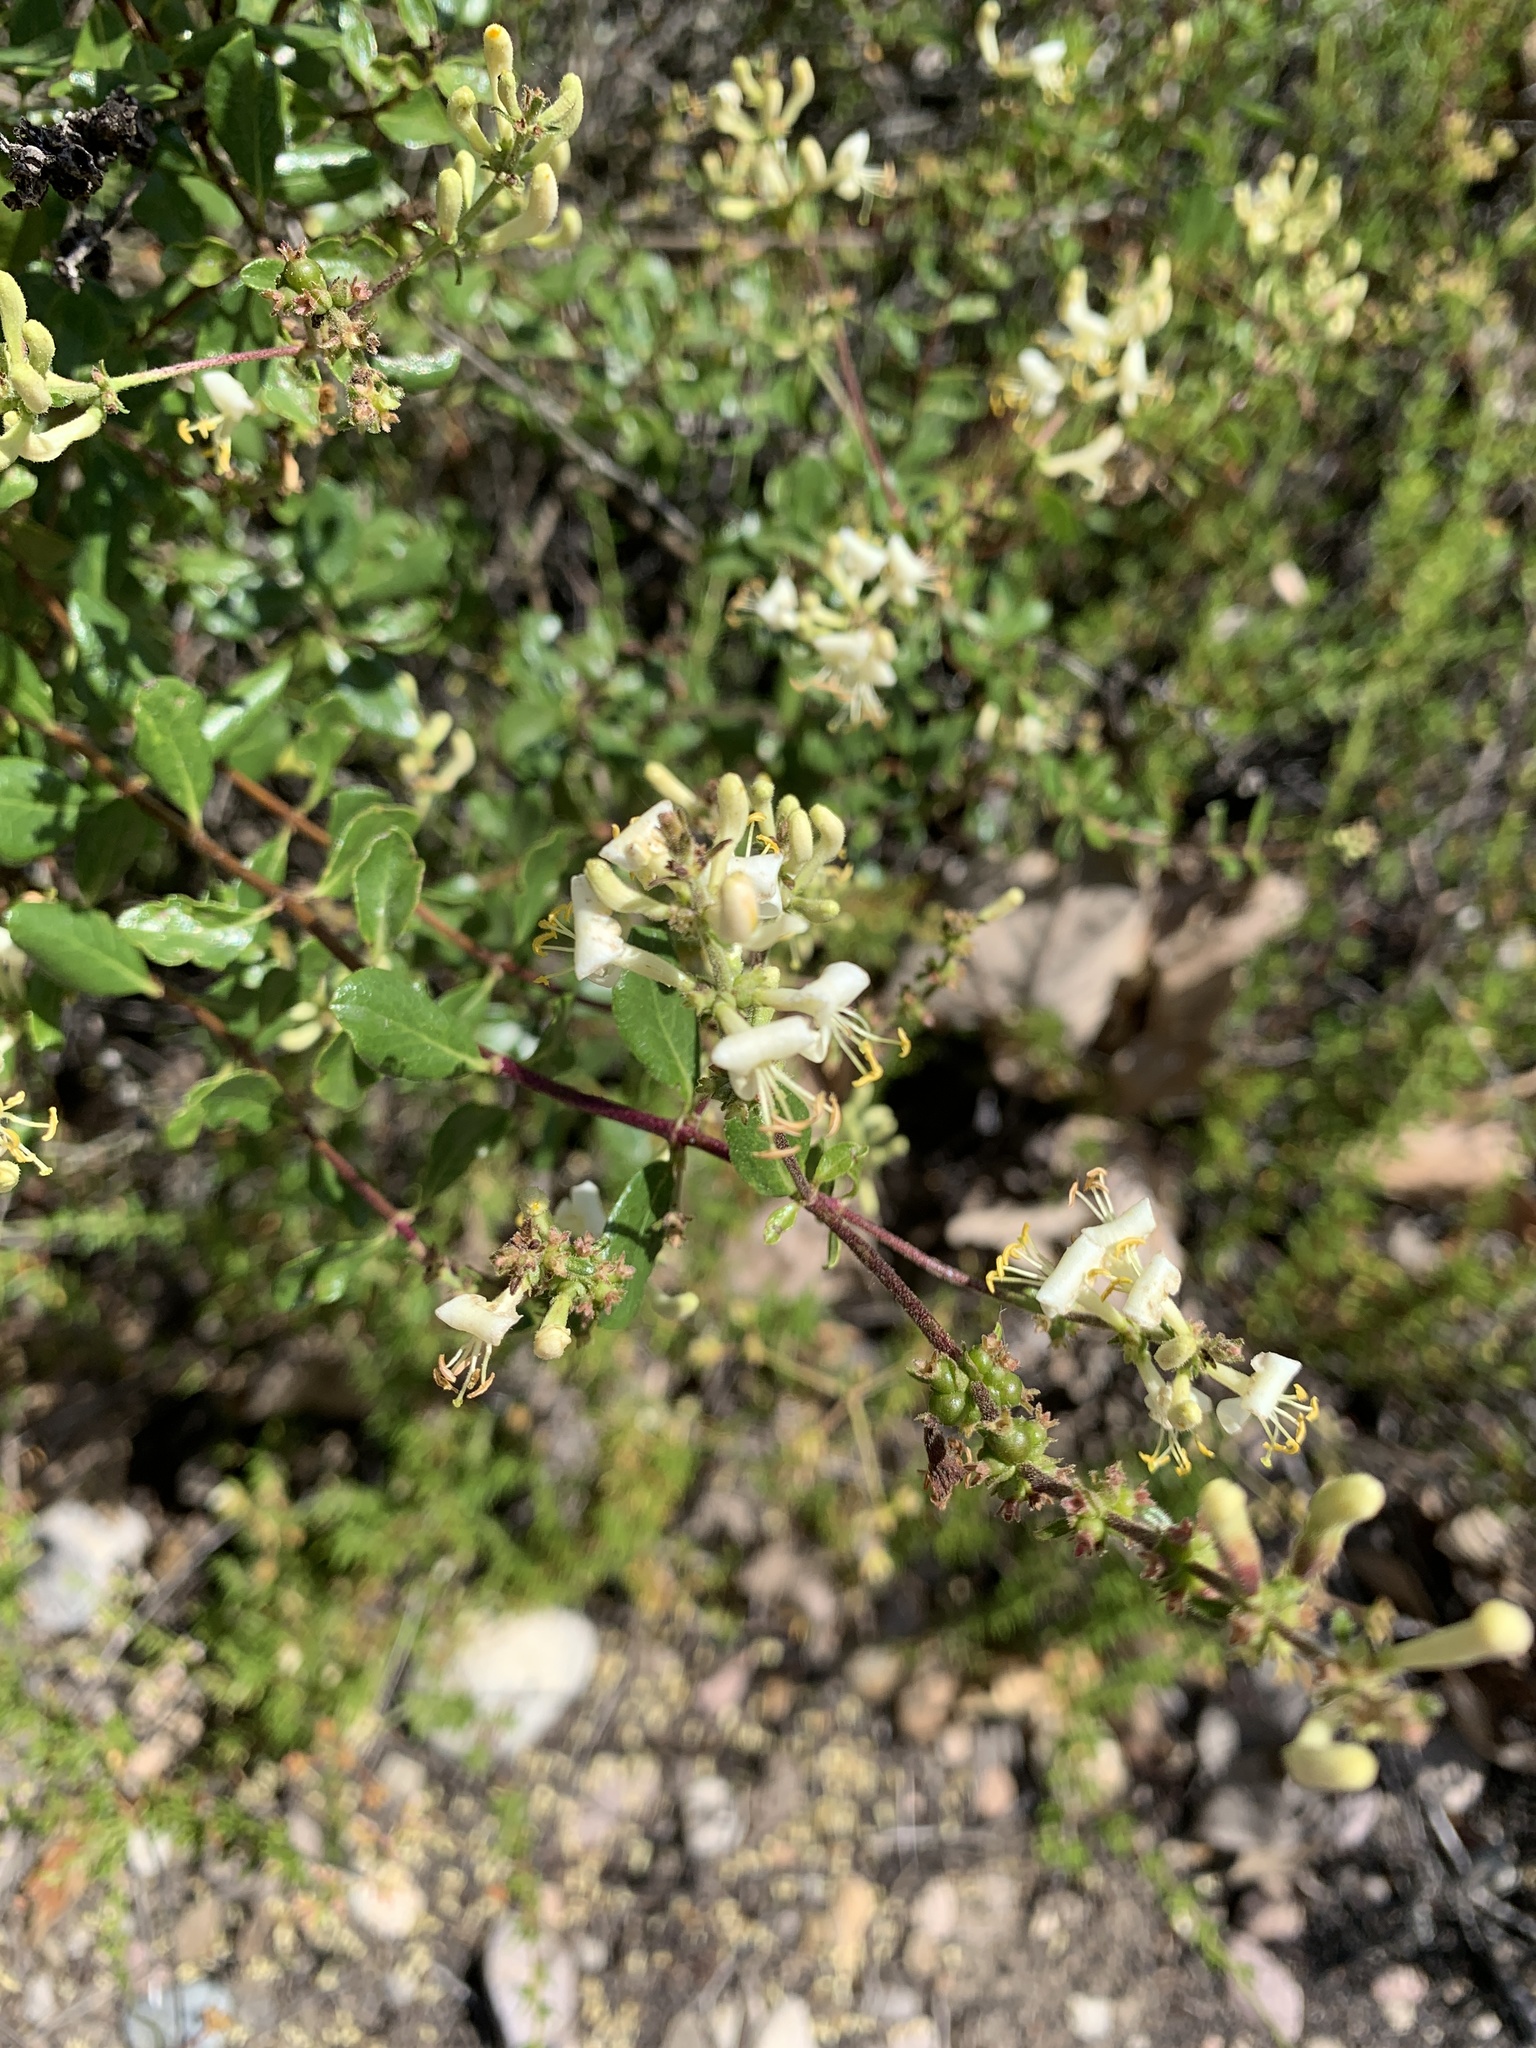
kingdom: Plantae
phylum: Tracheophyta
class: Magnoliopsida
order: Dipsacales
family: Caprifoliaceae
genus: Lonicera
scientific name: Lonicera subspicata
